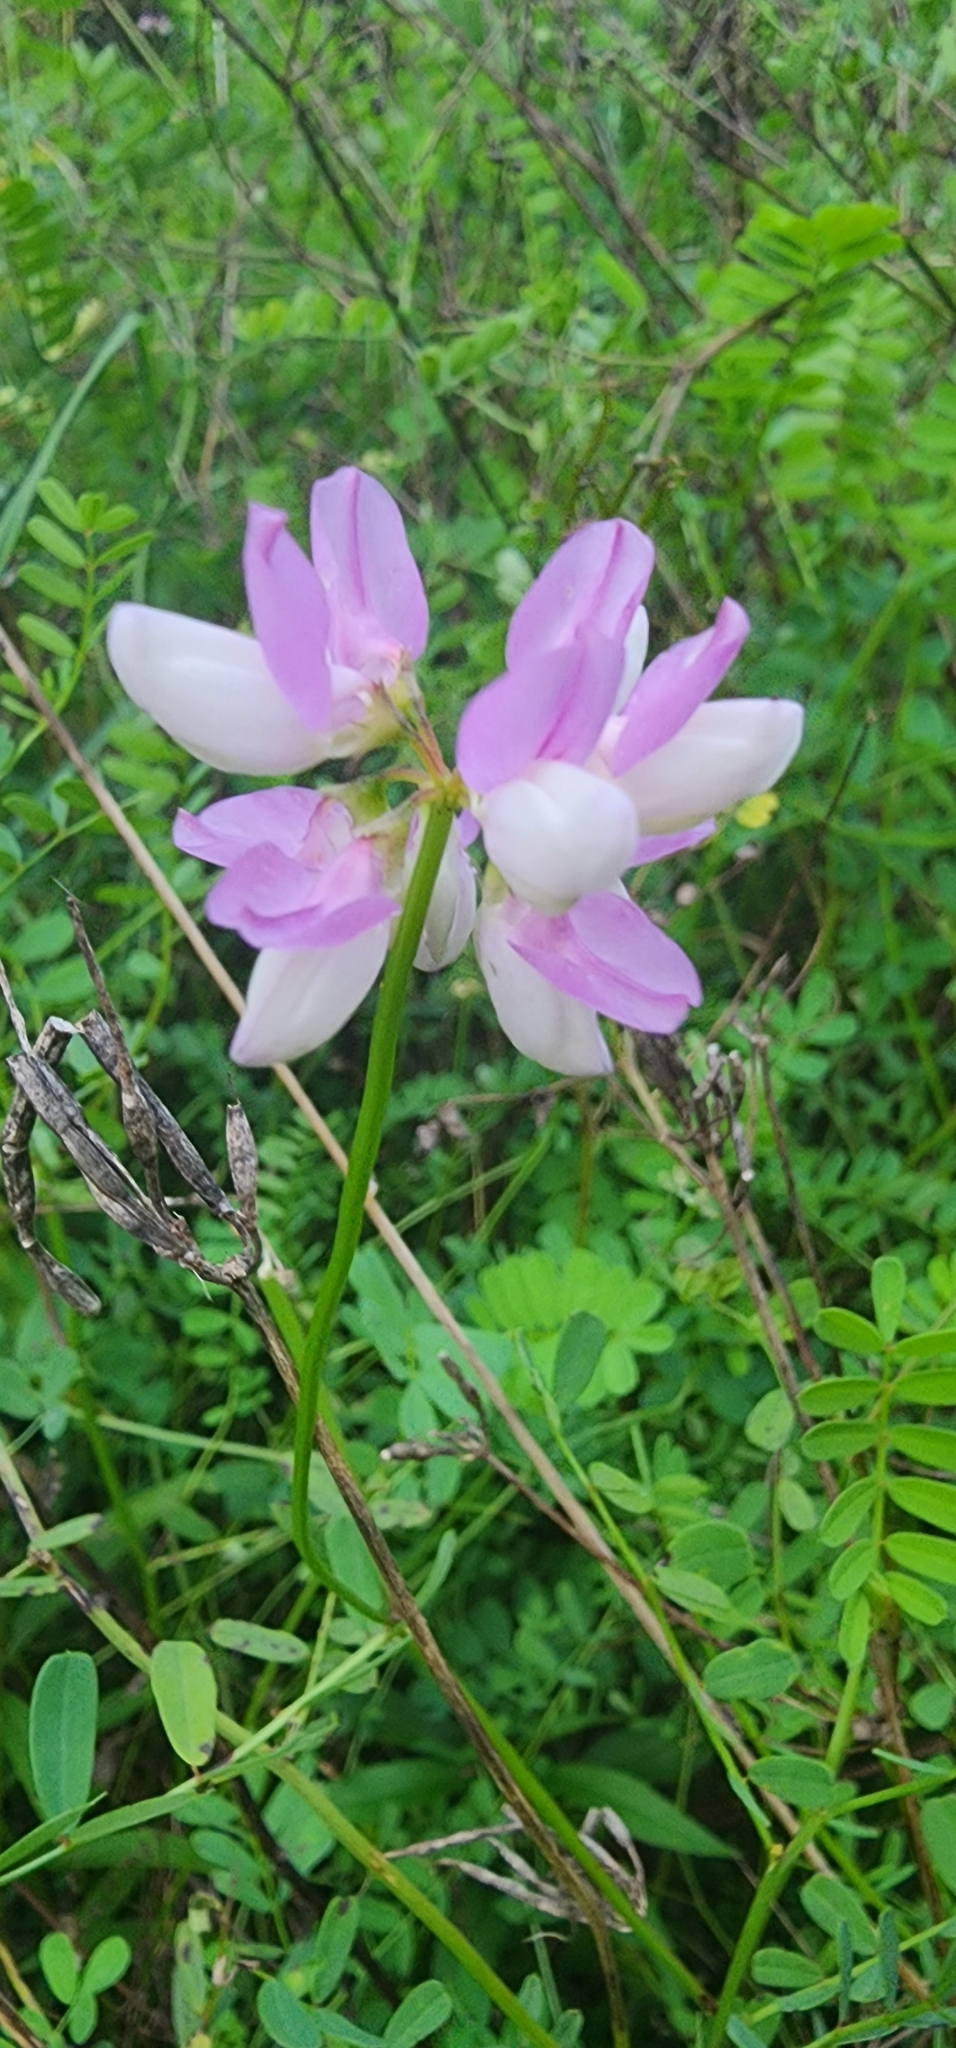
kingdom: Plantae
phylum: Tracheophyta
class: Magnoliopsida
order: Fabales
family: Fabaceae
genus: Coronilla
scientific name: Coronilla varia
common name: Crownvetch
